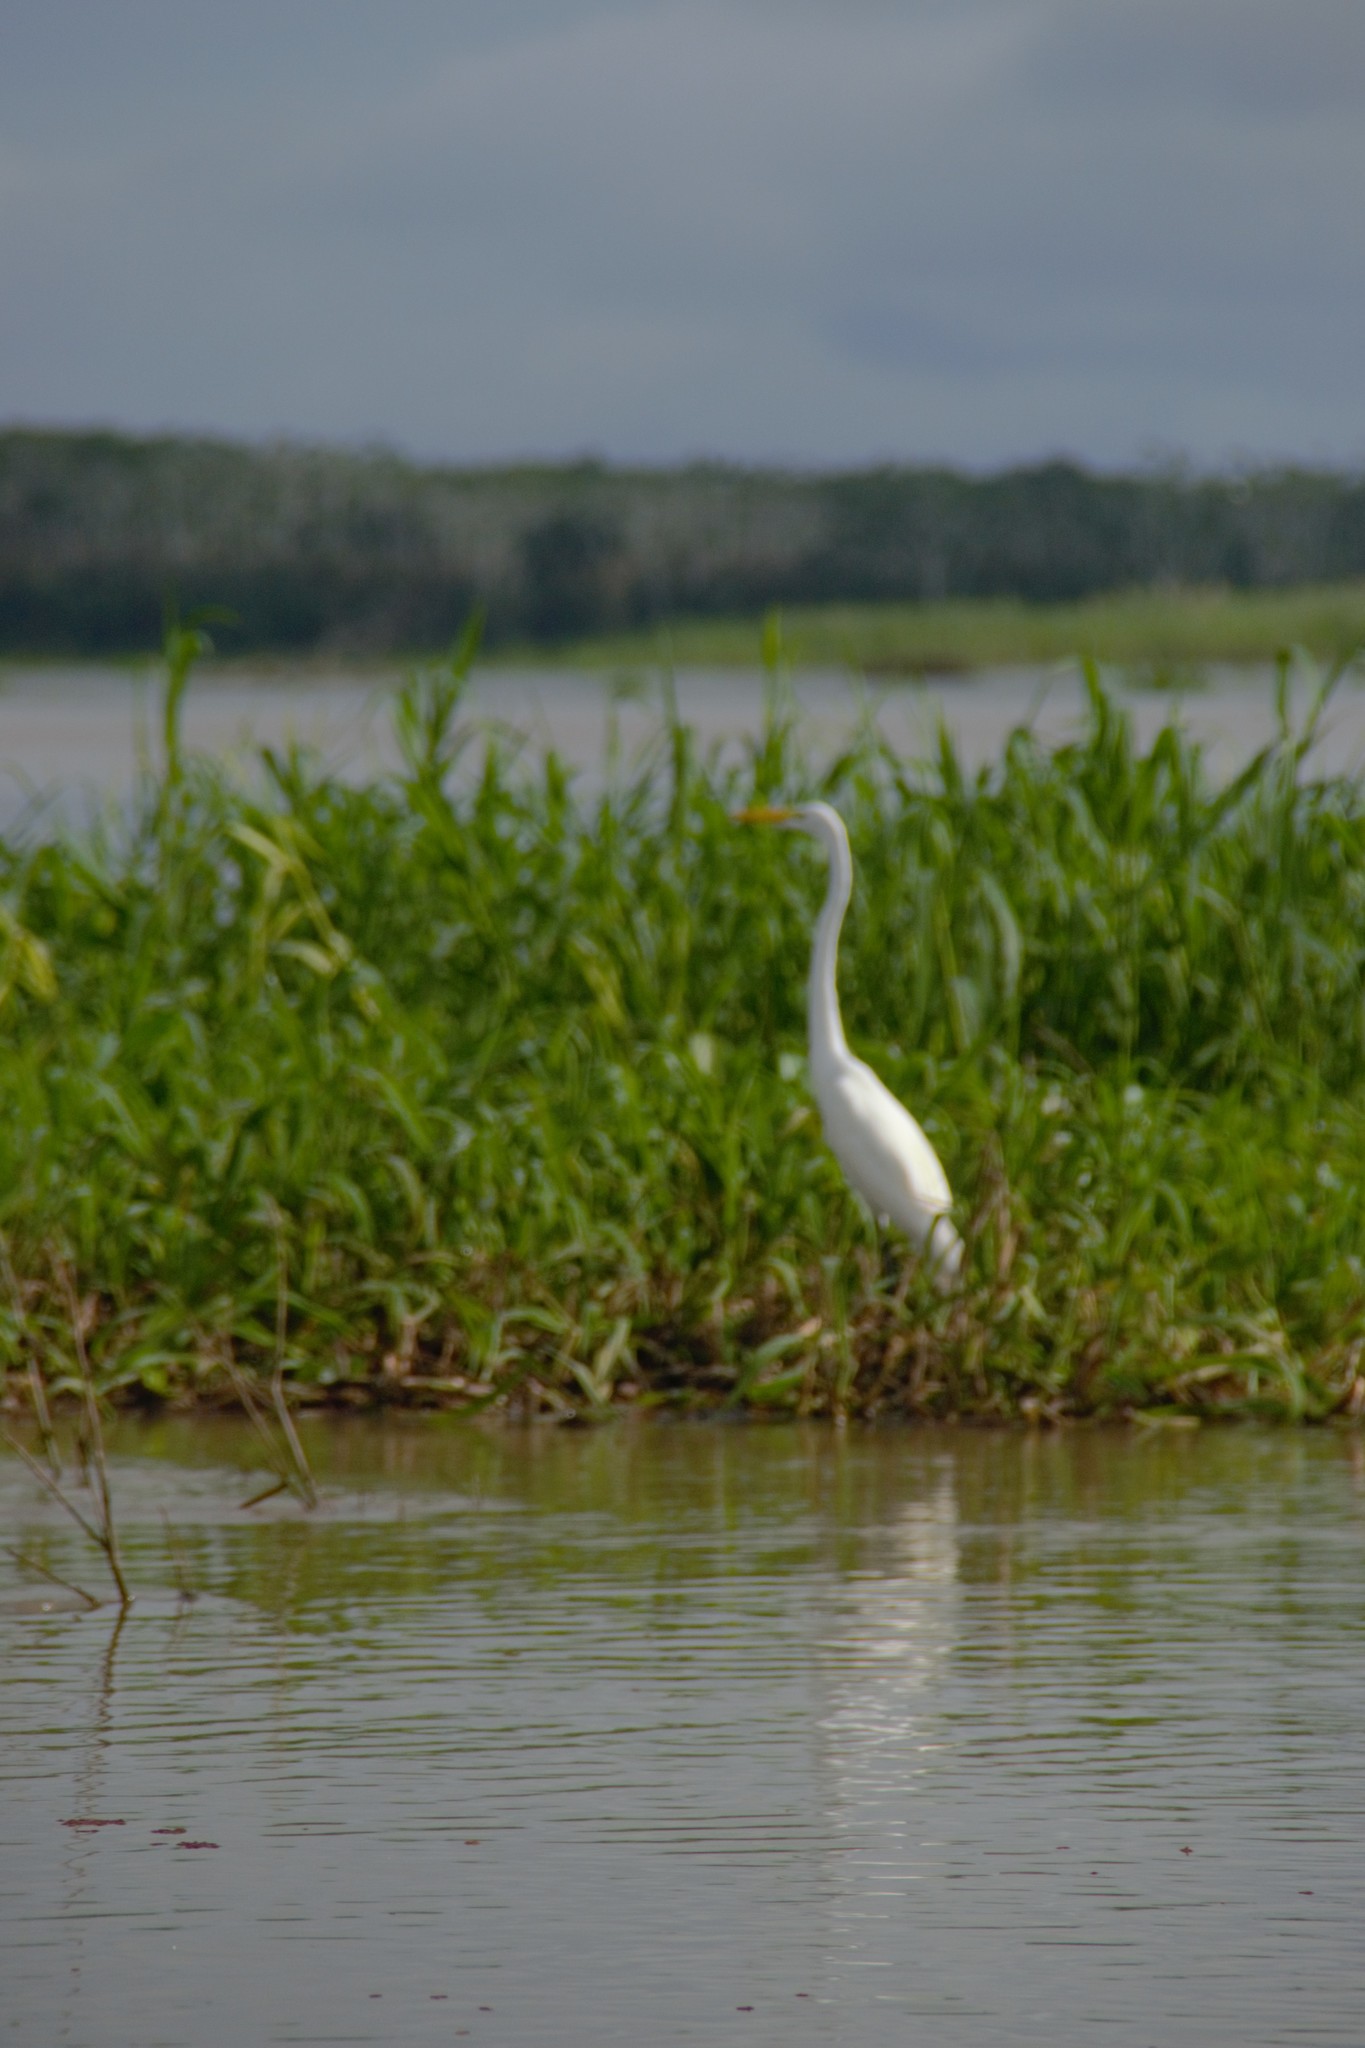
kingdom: Animalia
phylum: Chordata
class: Aves
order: Pelecaniformes
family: Ardeidae
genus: Ardea
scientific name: Ardea alba
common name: Great egret
